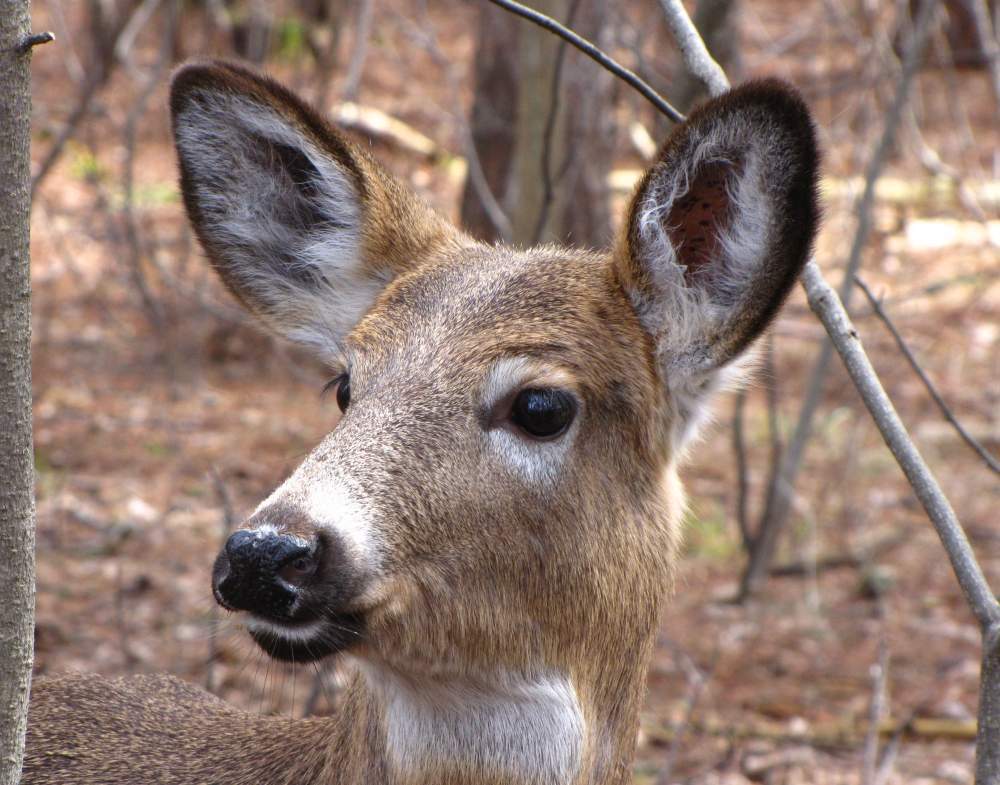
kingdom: Animalia
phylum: Chordata
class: Mammalia
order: Artiodactyla
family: Cervidae
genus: Odocoileus
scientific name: Odocoileus virginianus
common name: White-tailed deer
